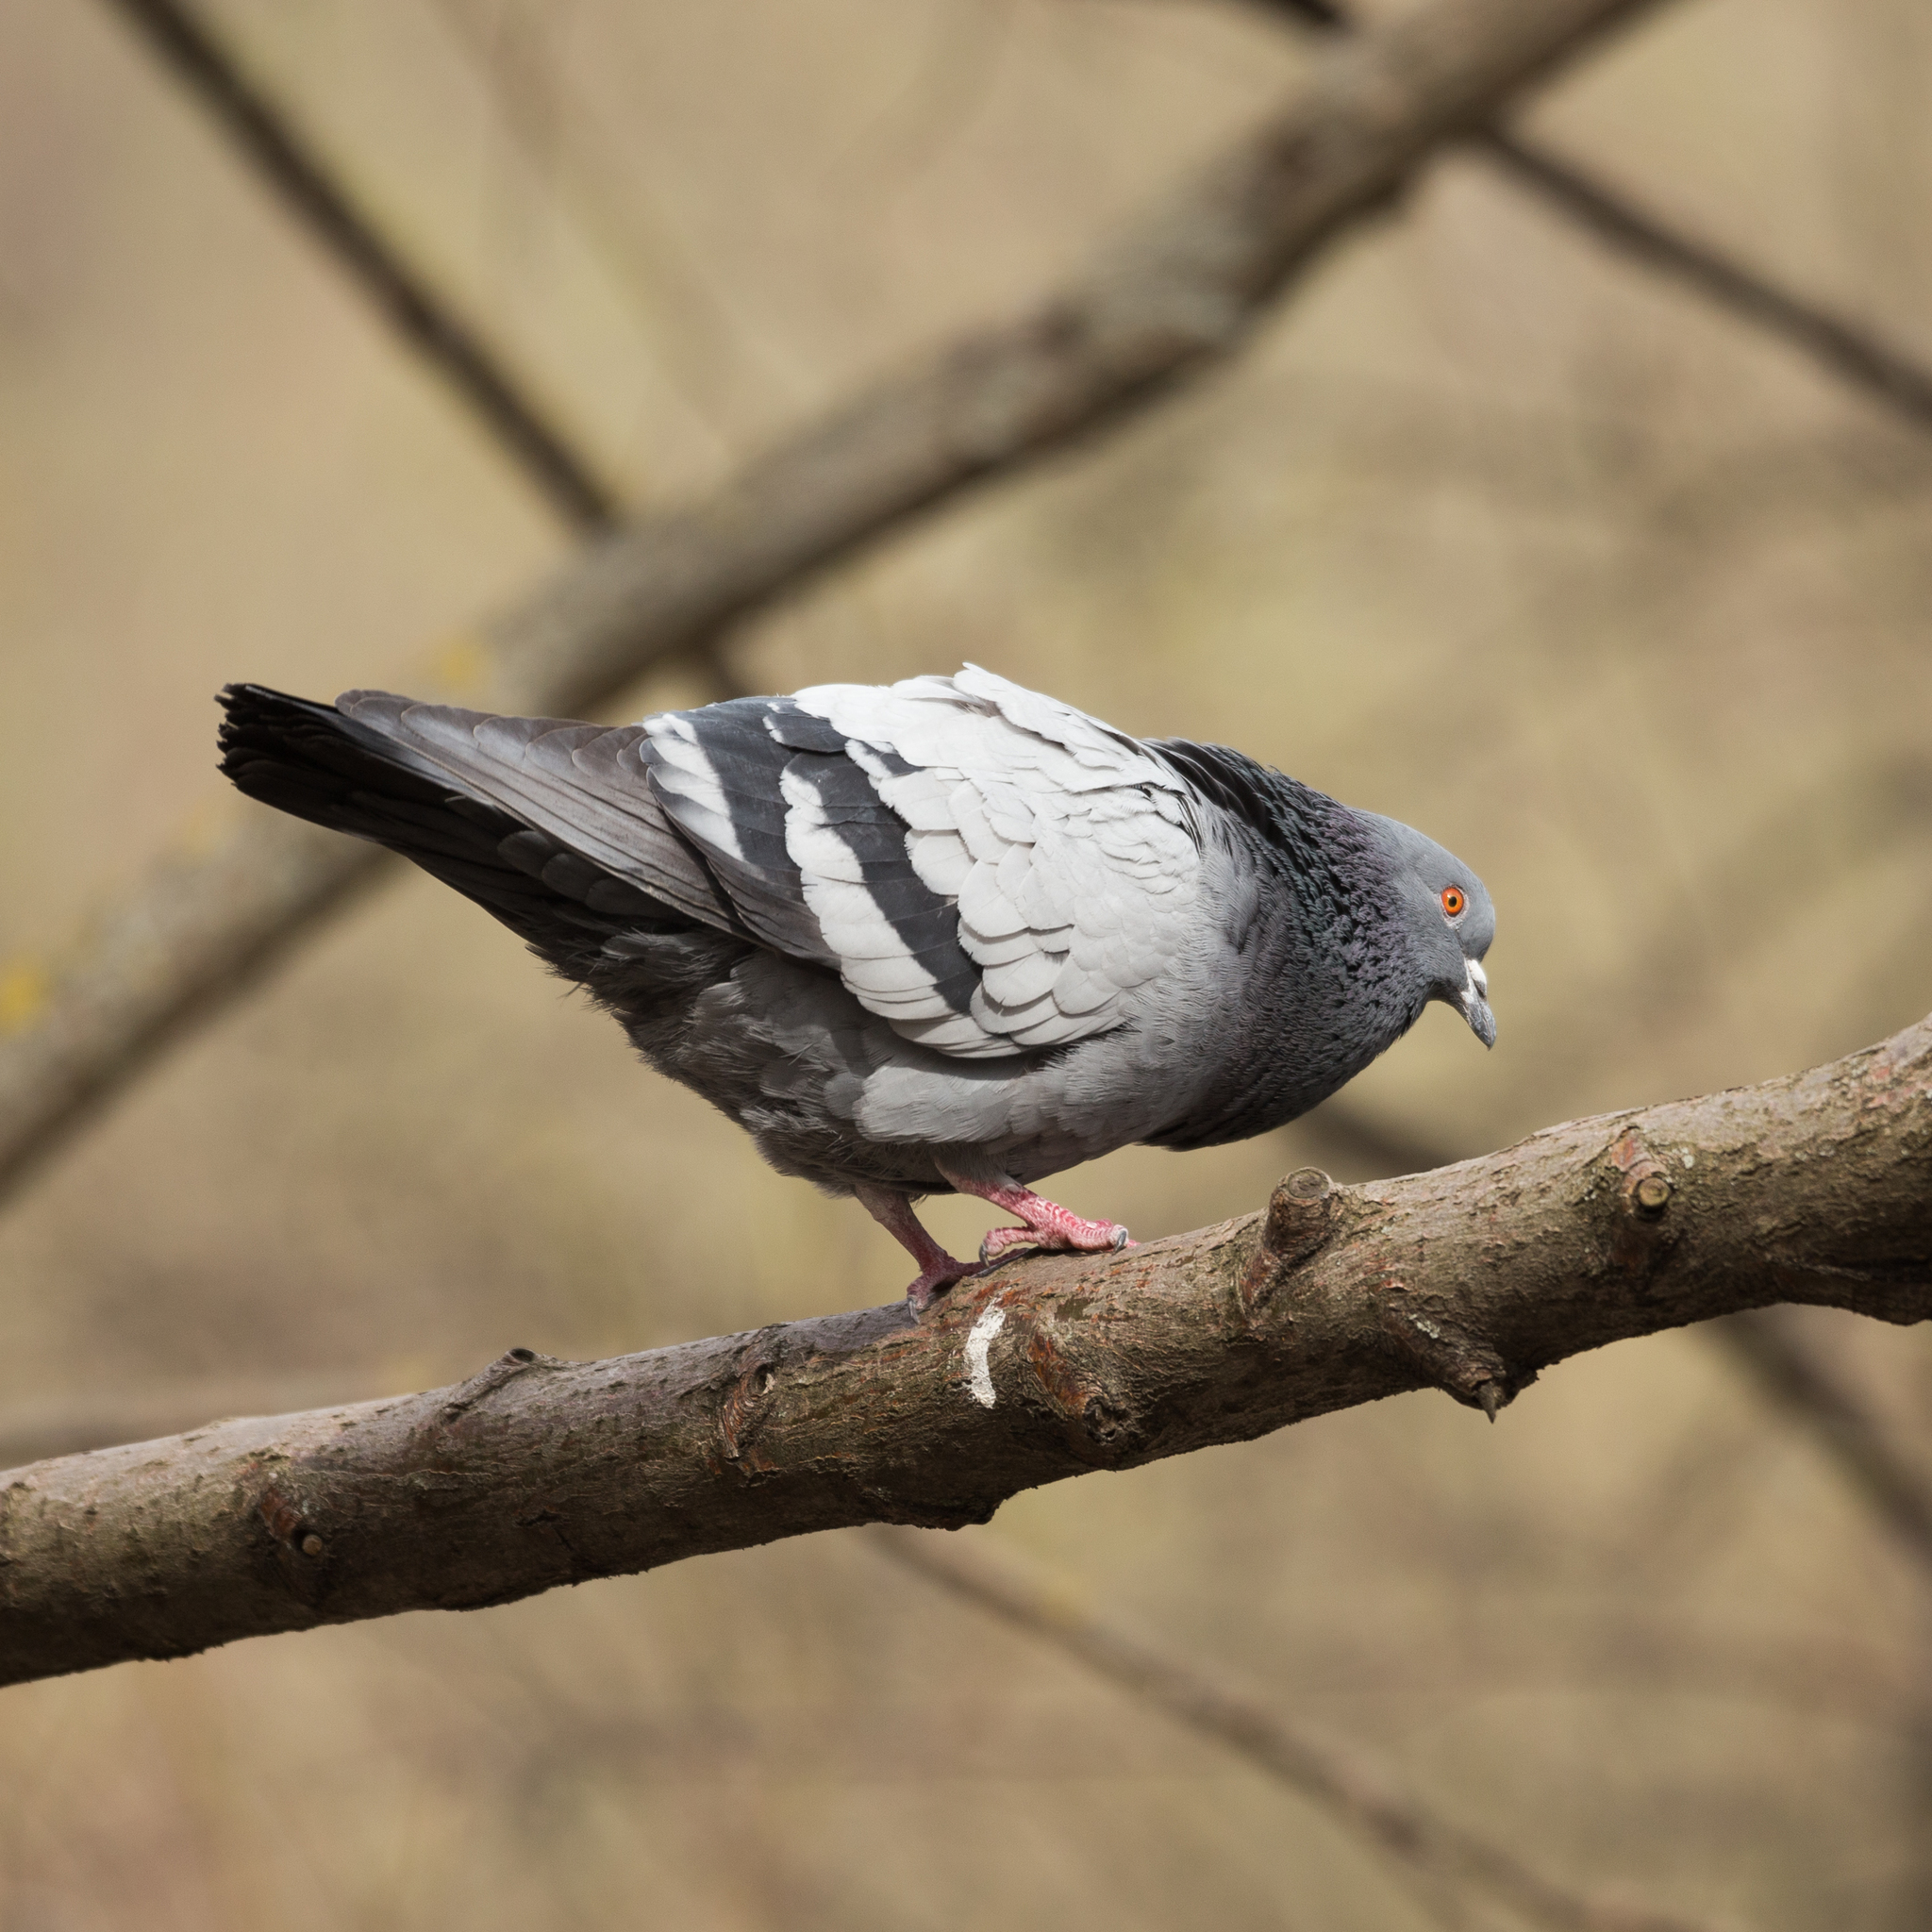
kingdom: Animalia
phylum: Chordata
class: Aves
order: Columbiformes
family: Columbidae
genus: Columba
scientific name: Columba livia
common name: Rock pigeon
